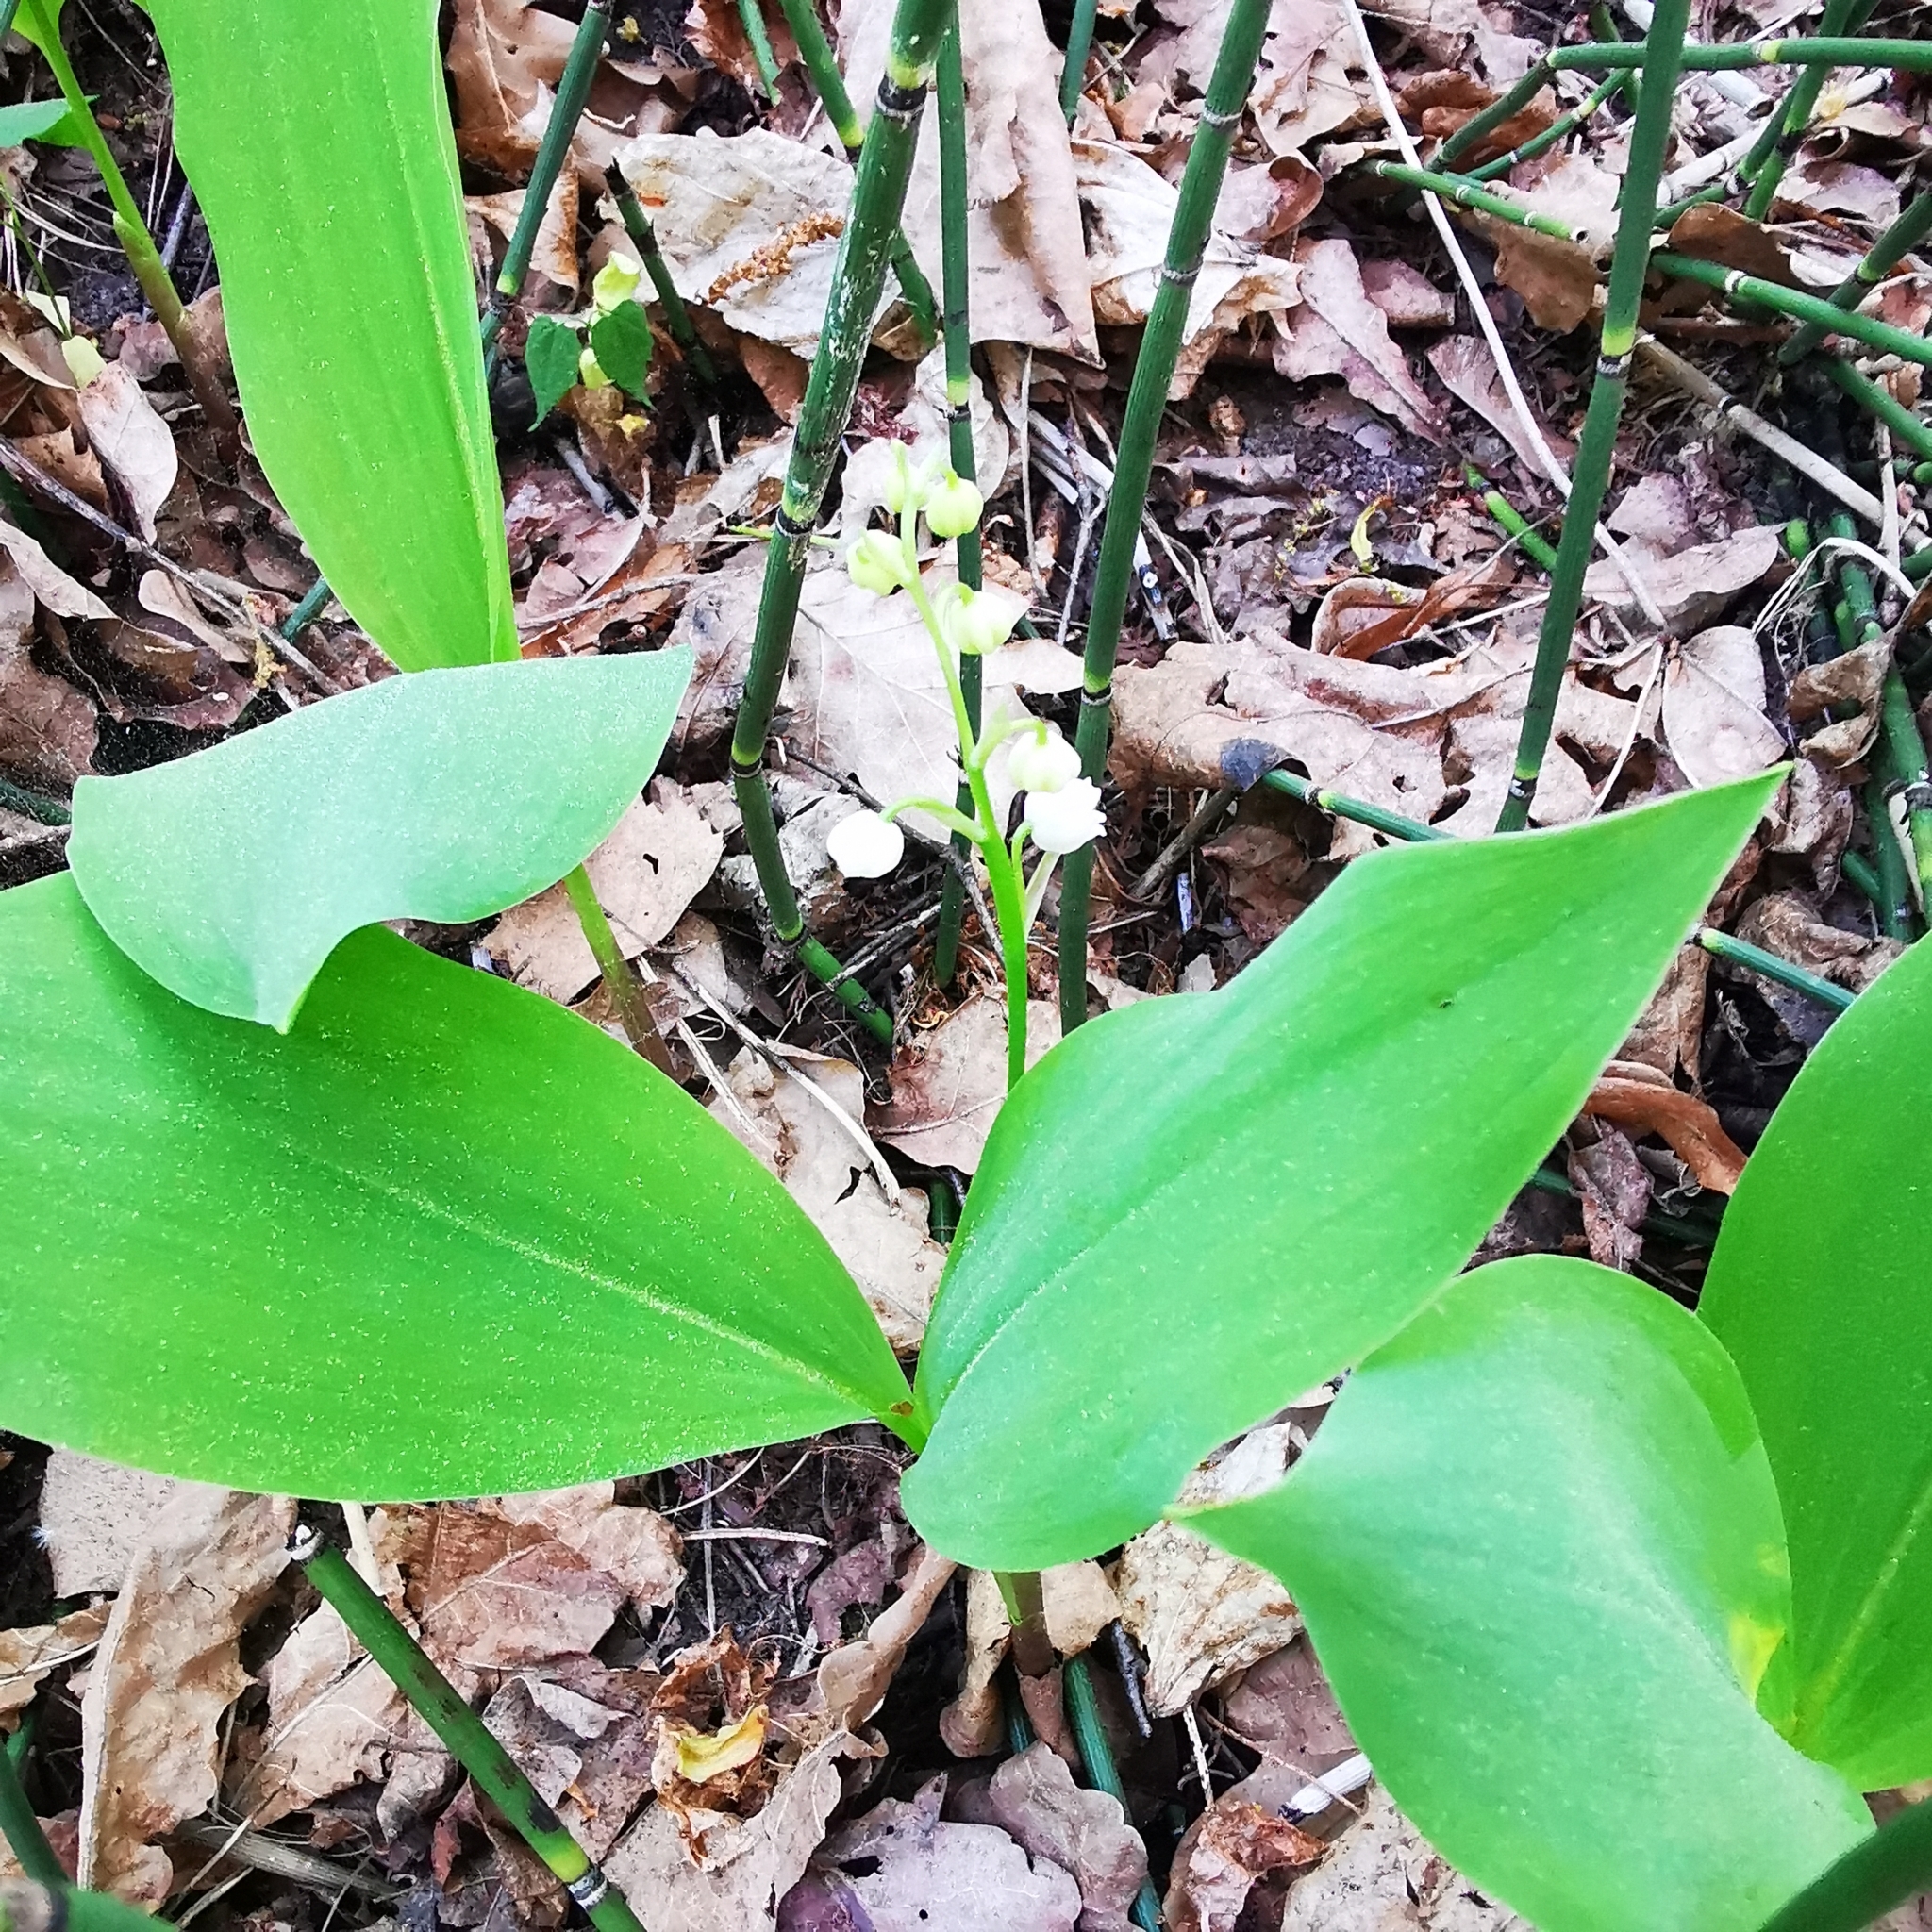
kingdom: Plantae
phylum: Tracheophyta
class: Liliopsida
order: Asparagales
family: Asparagaceae
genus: Convallaria
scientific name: Convallaria majalis
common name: Lily-of-the-valley
